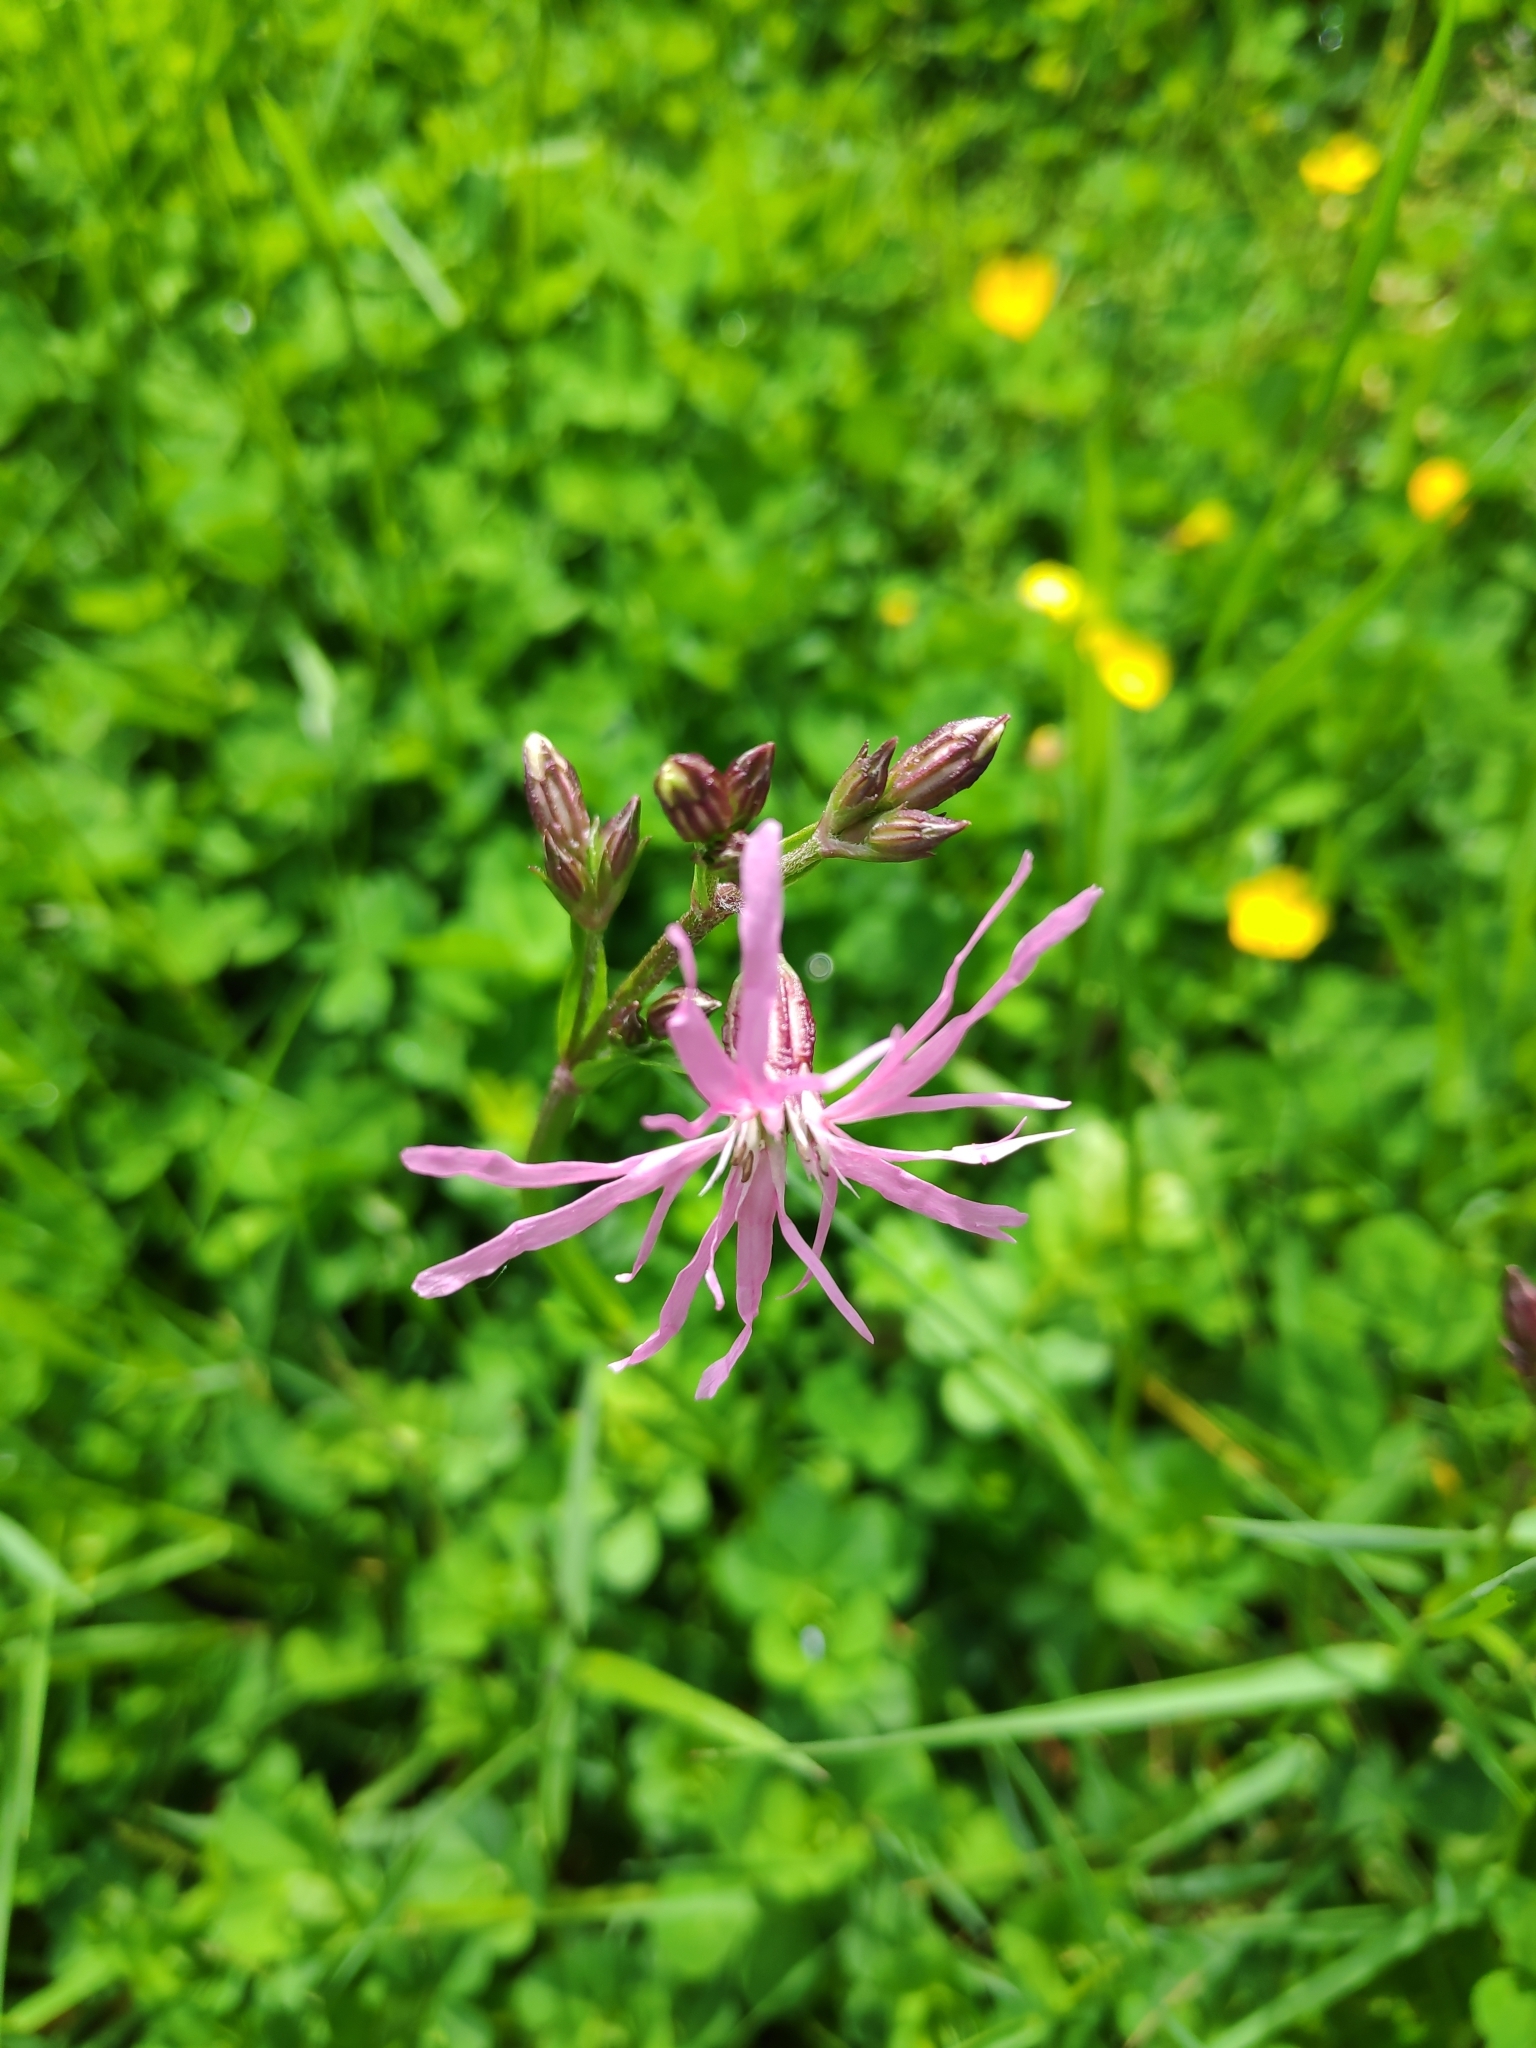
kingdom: Plantae
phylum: Tracheophyta
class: Magnoliopsida
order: Caryophyllales
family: Caryophyllaceae
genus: Silene
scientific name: Silene flos-cuculi
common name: Ragged-robin
